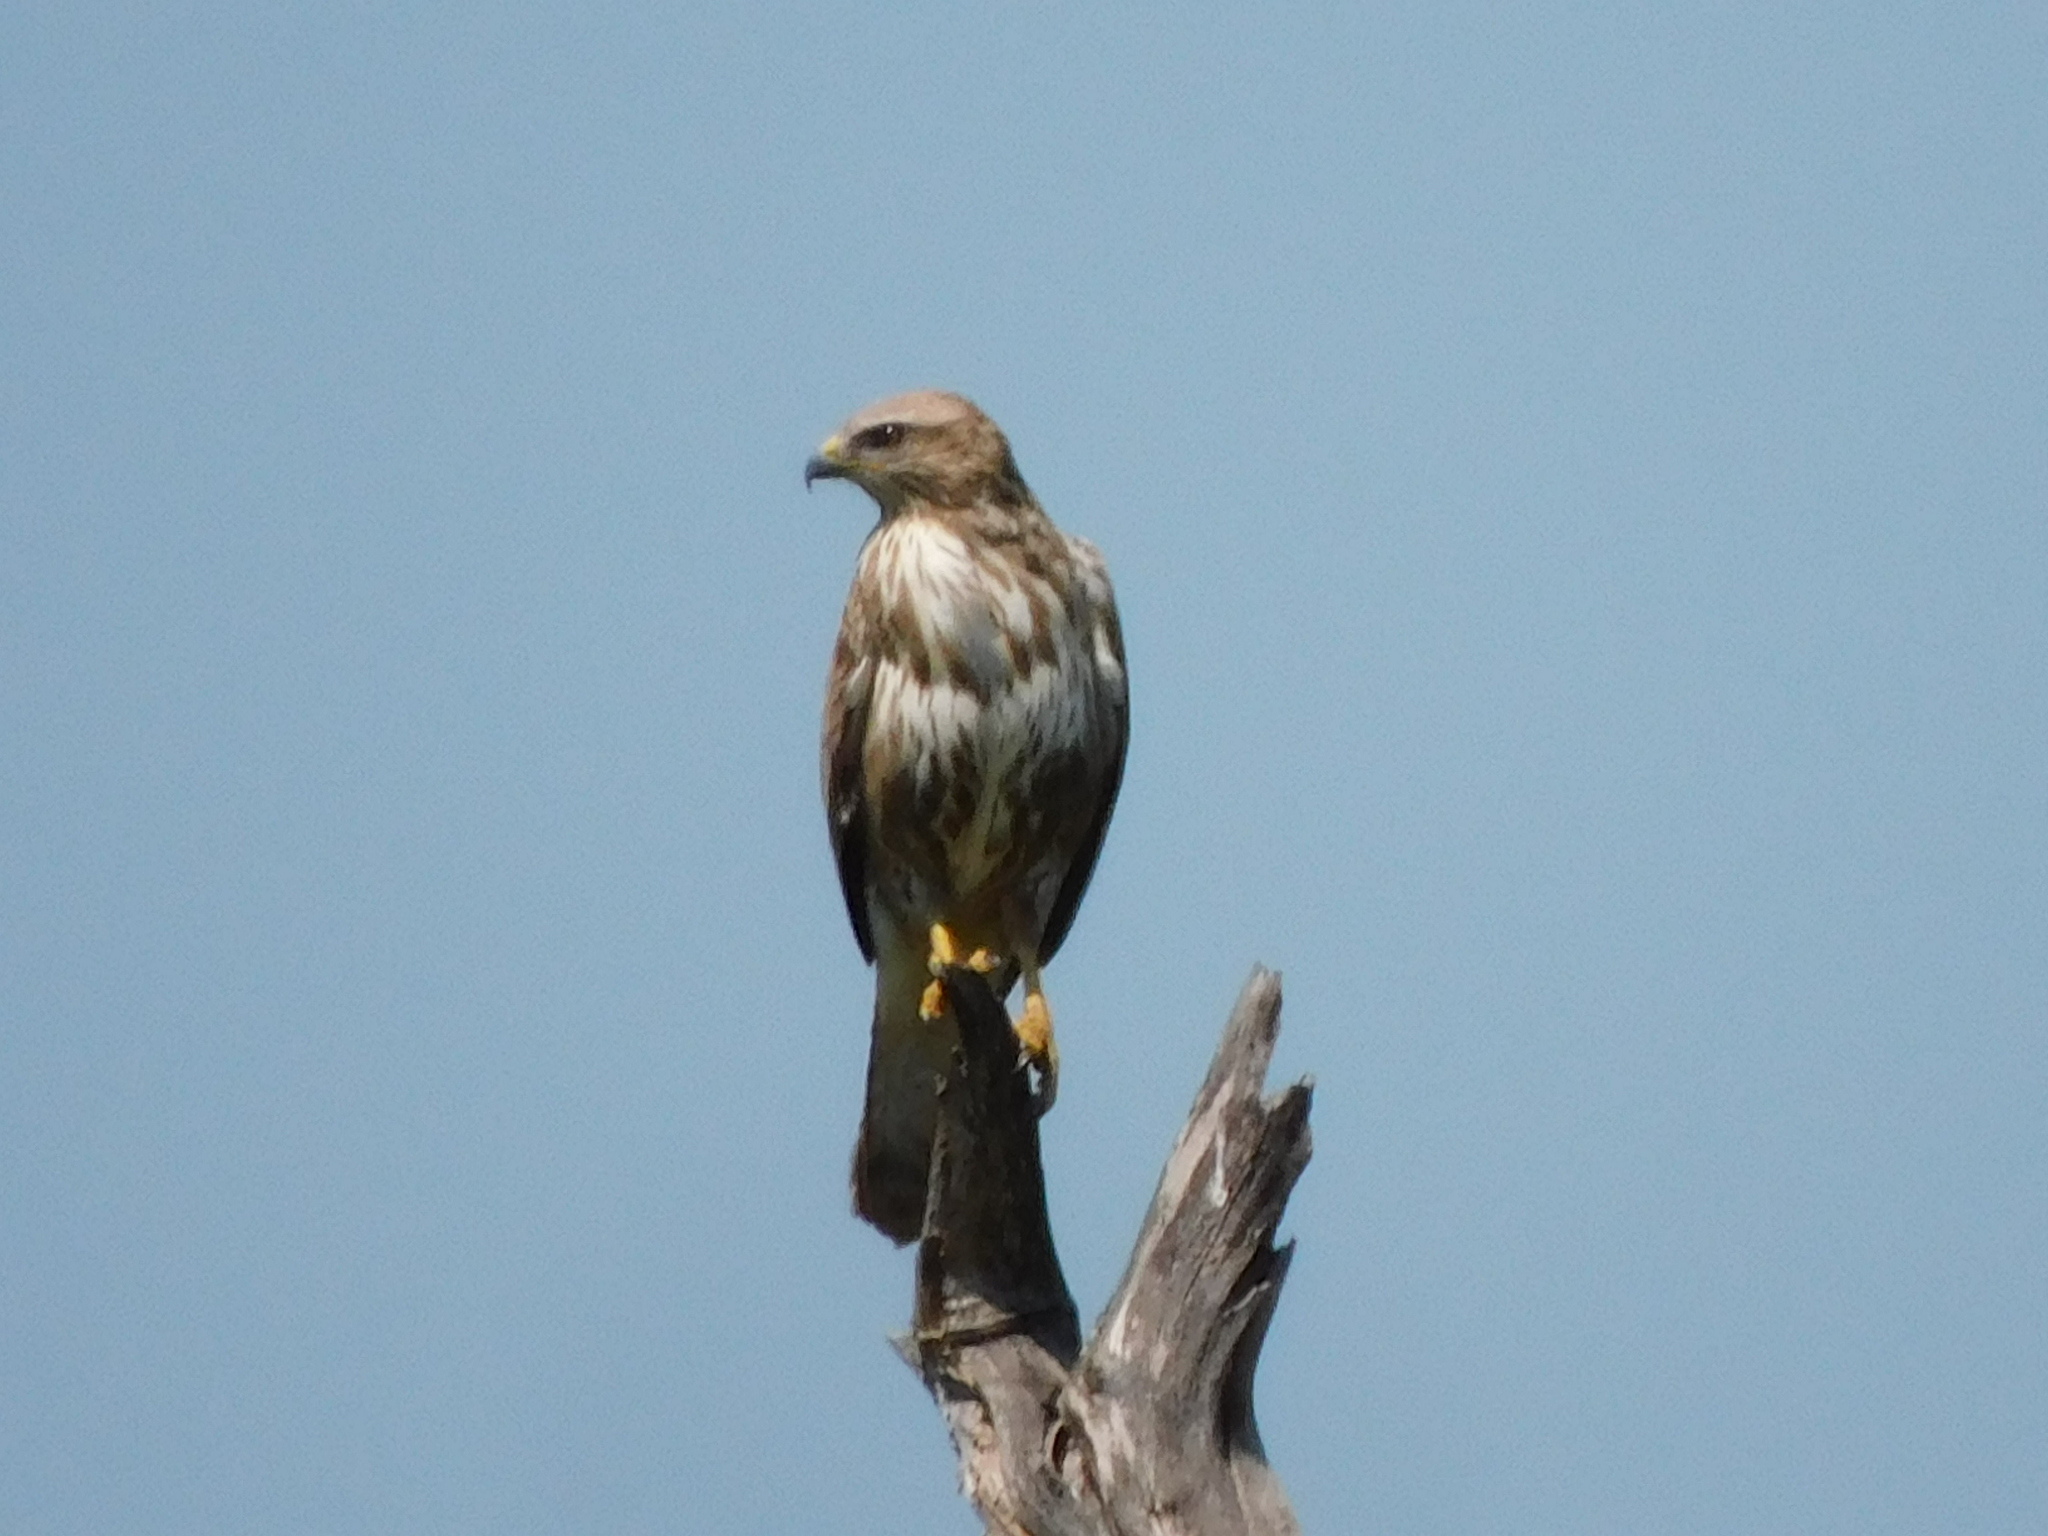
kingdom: Animalia
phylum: Chordata
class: Aves
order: Accipitriformes
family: Accipitridae
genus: Buteo
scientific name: Buteo buteo
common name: Common buzzard
